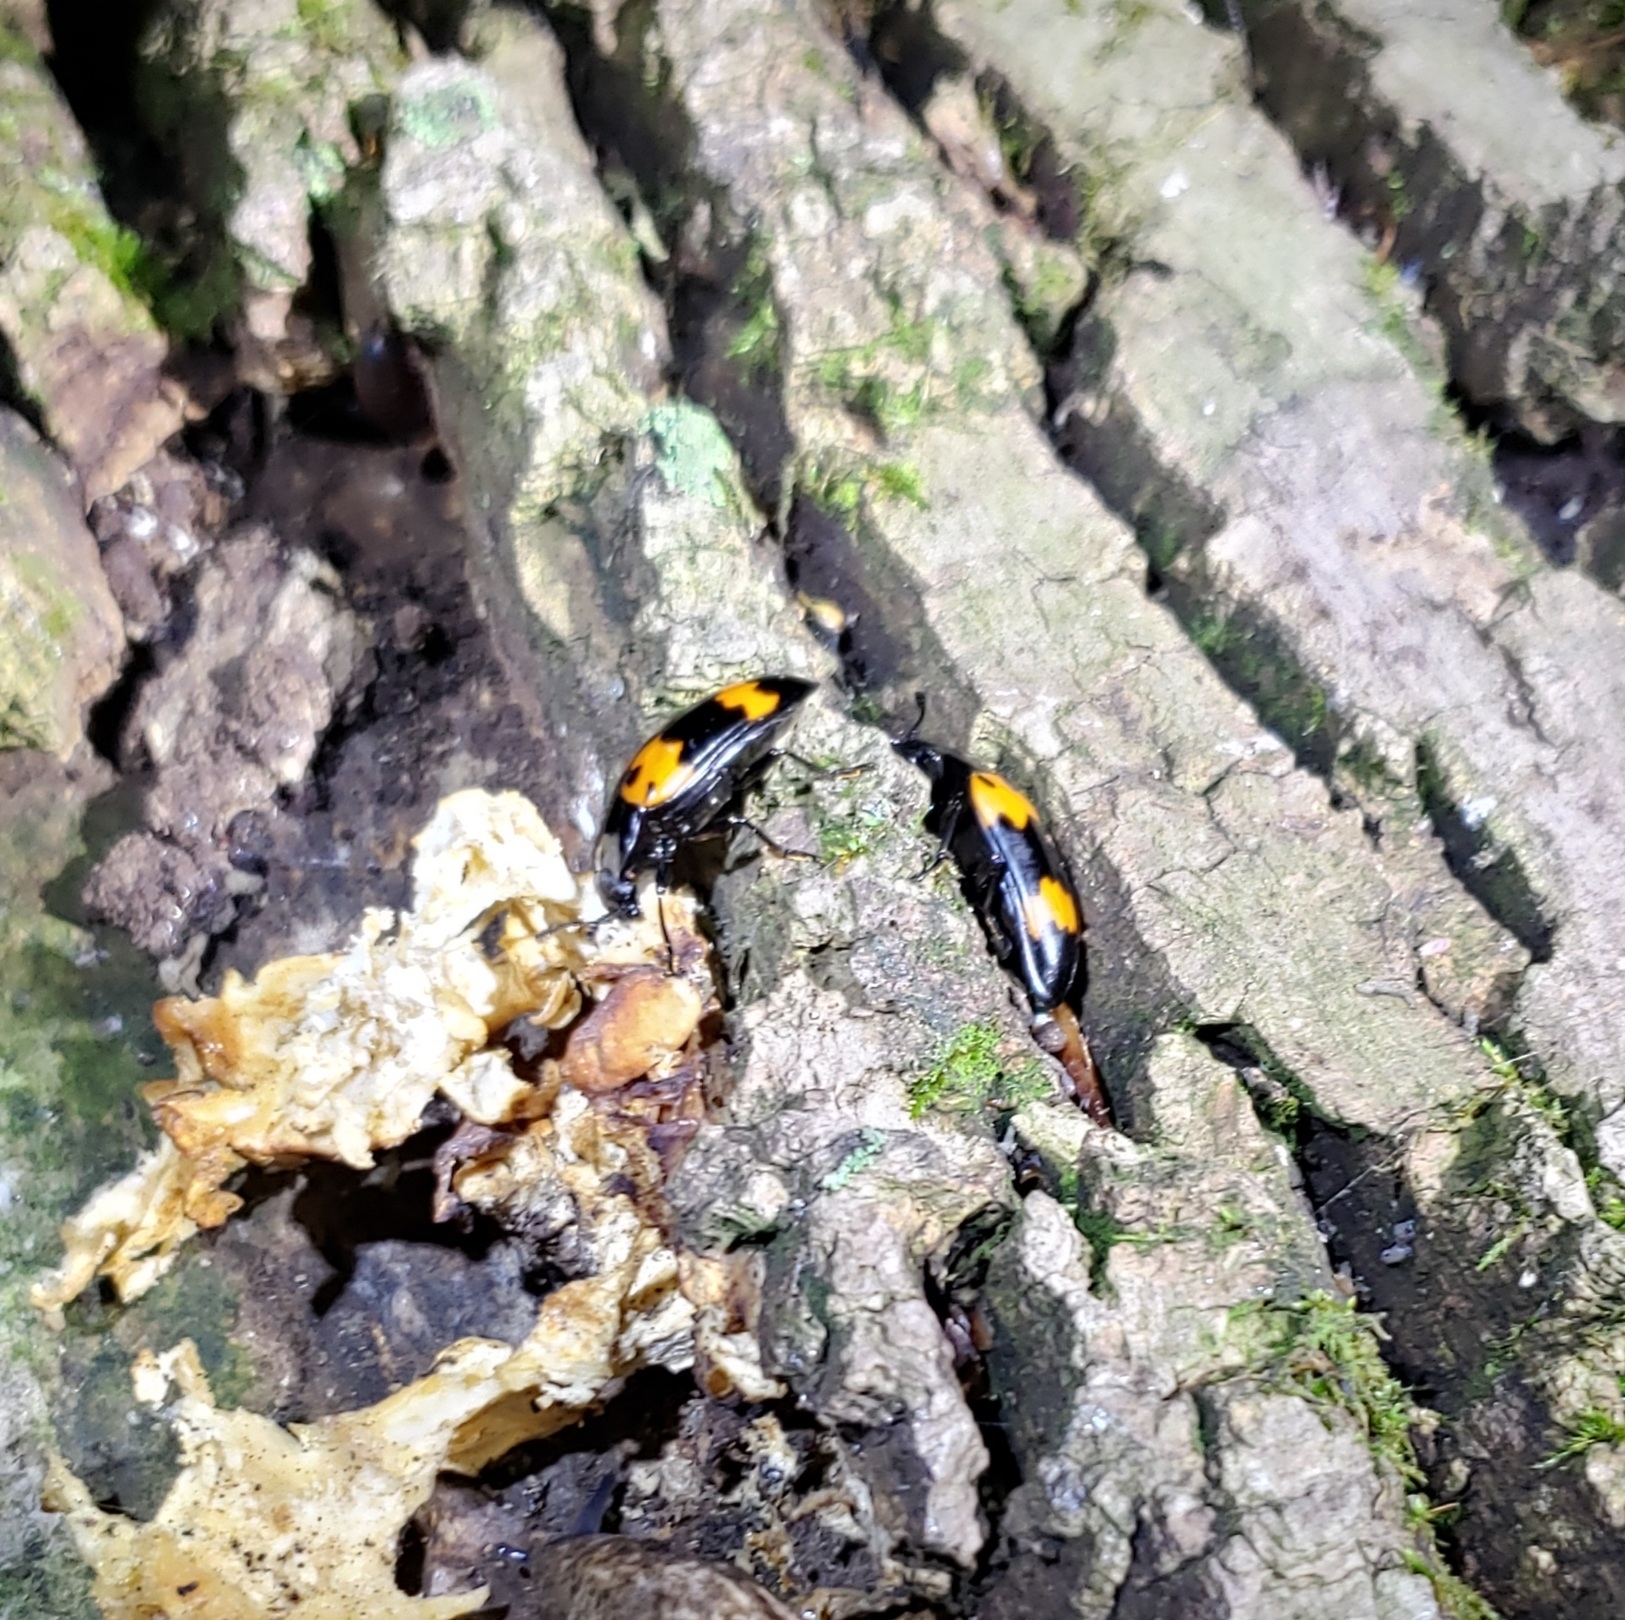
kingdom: Animalia
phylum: Arthropoda
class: Insecta
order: Coleoptera
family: Erotylidae
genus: Megalodacne
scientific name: Megalodacne heros
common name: Pleasing fungus beetle
